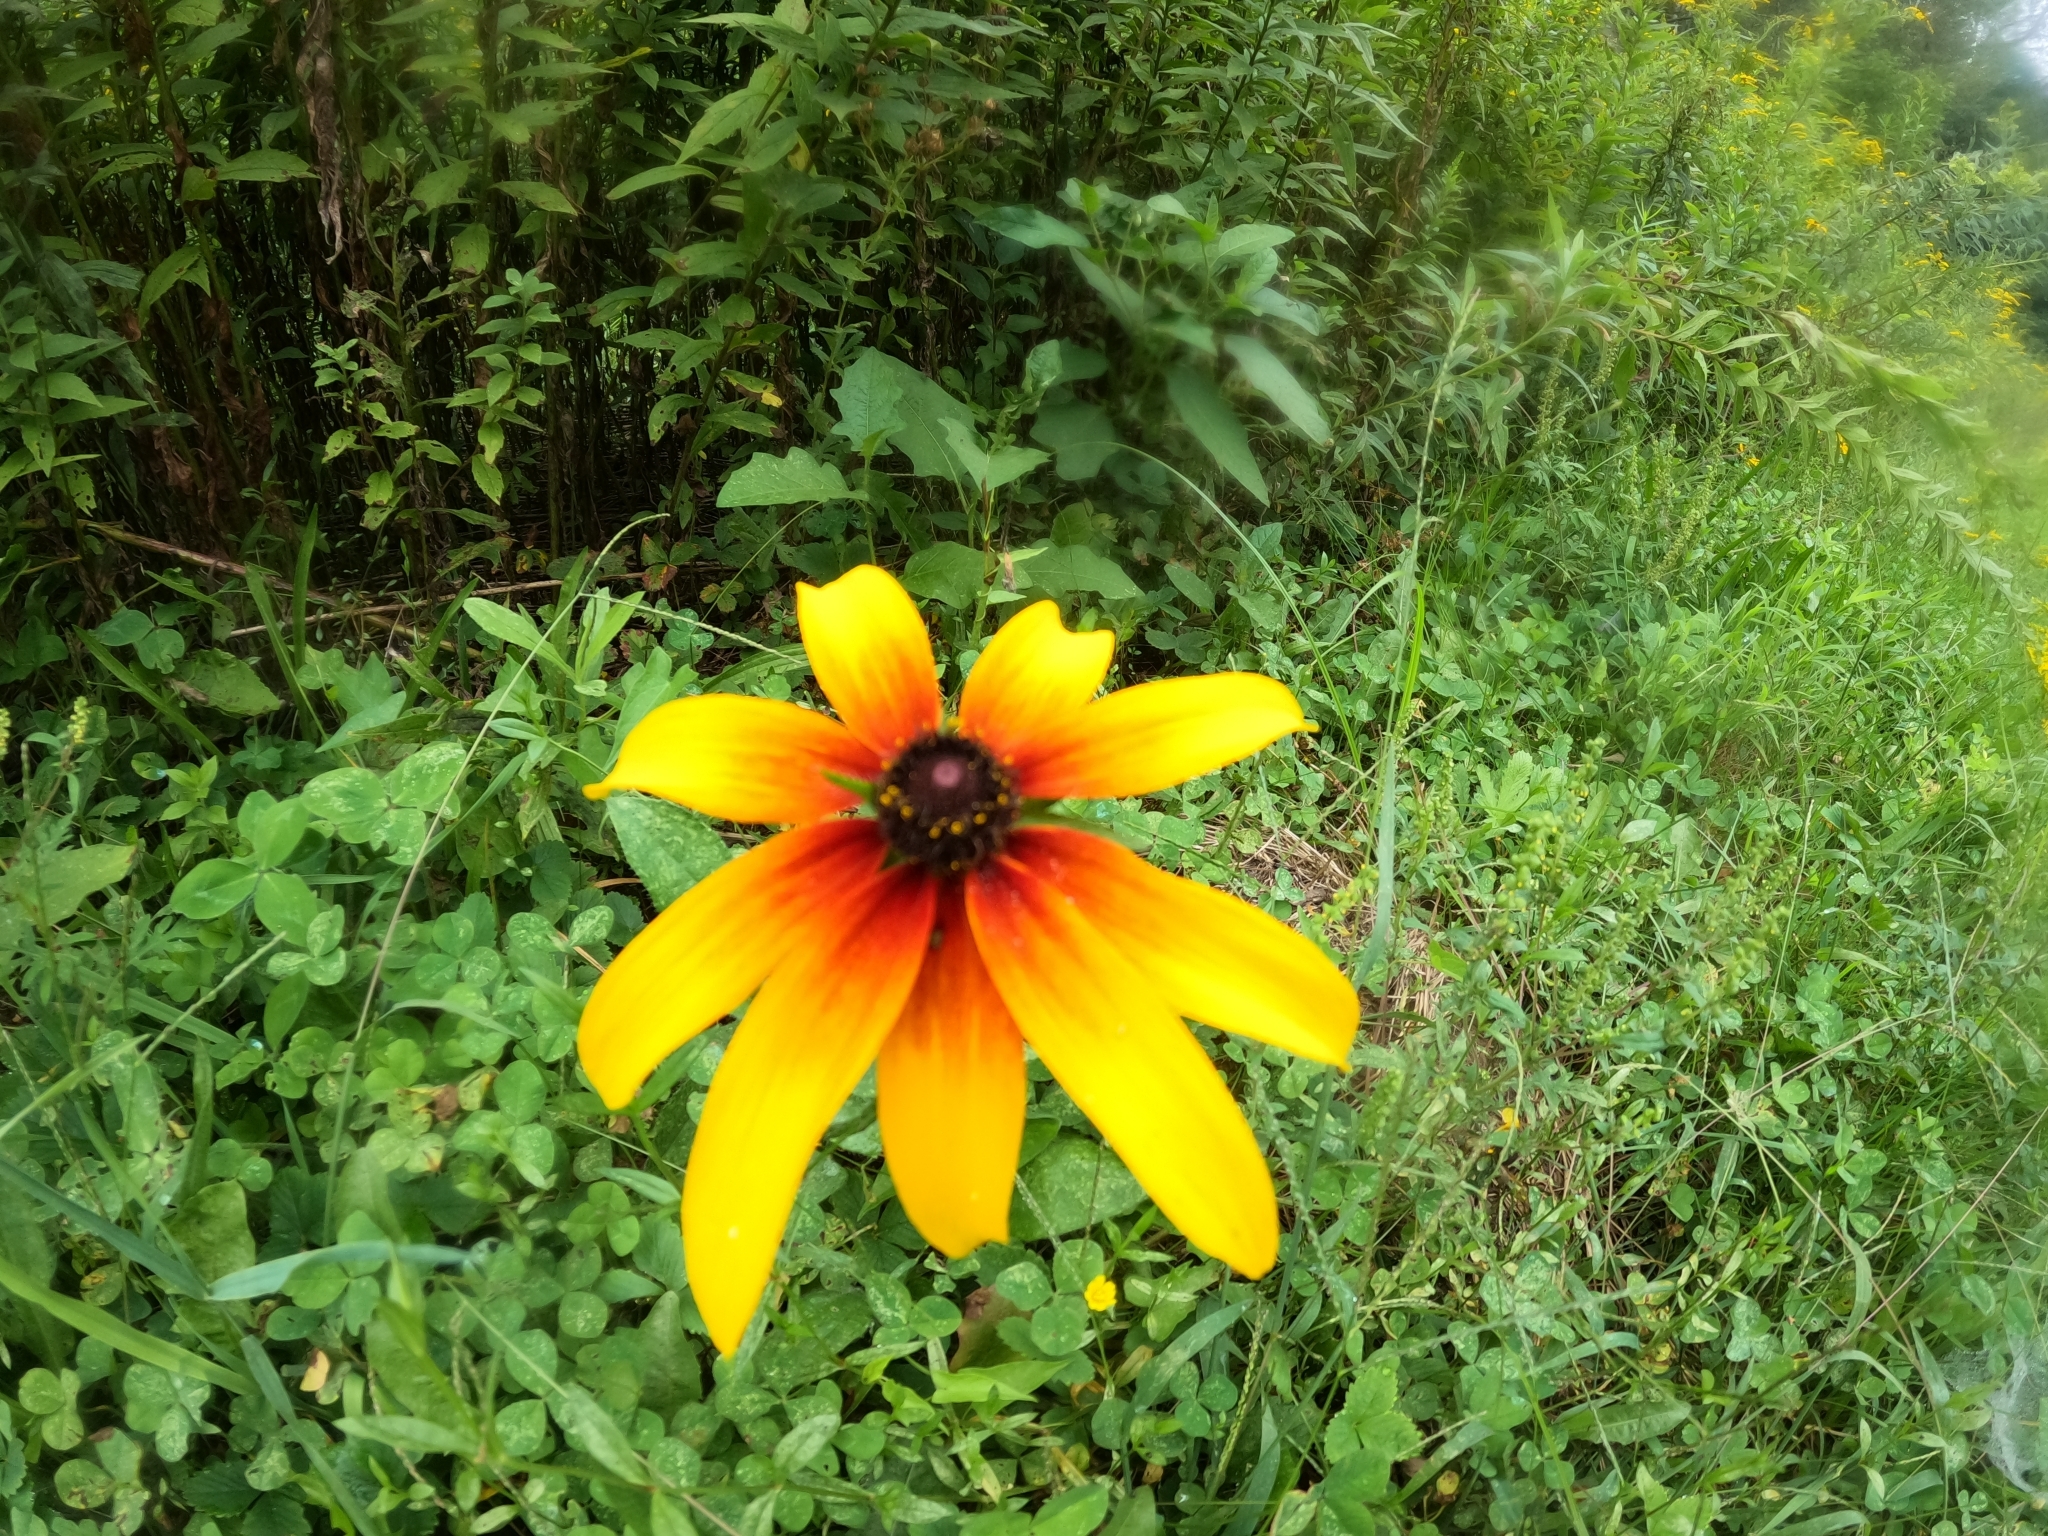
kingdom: Plantae
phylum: Tracheophyta
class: Magnoliopsida
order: Asterales
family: Asteraceae
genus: Rudbeckia
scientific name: Rudbeckia hirta
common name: Black-eyed-susan
